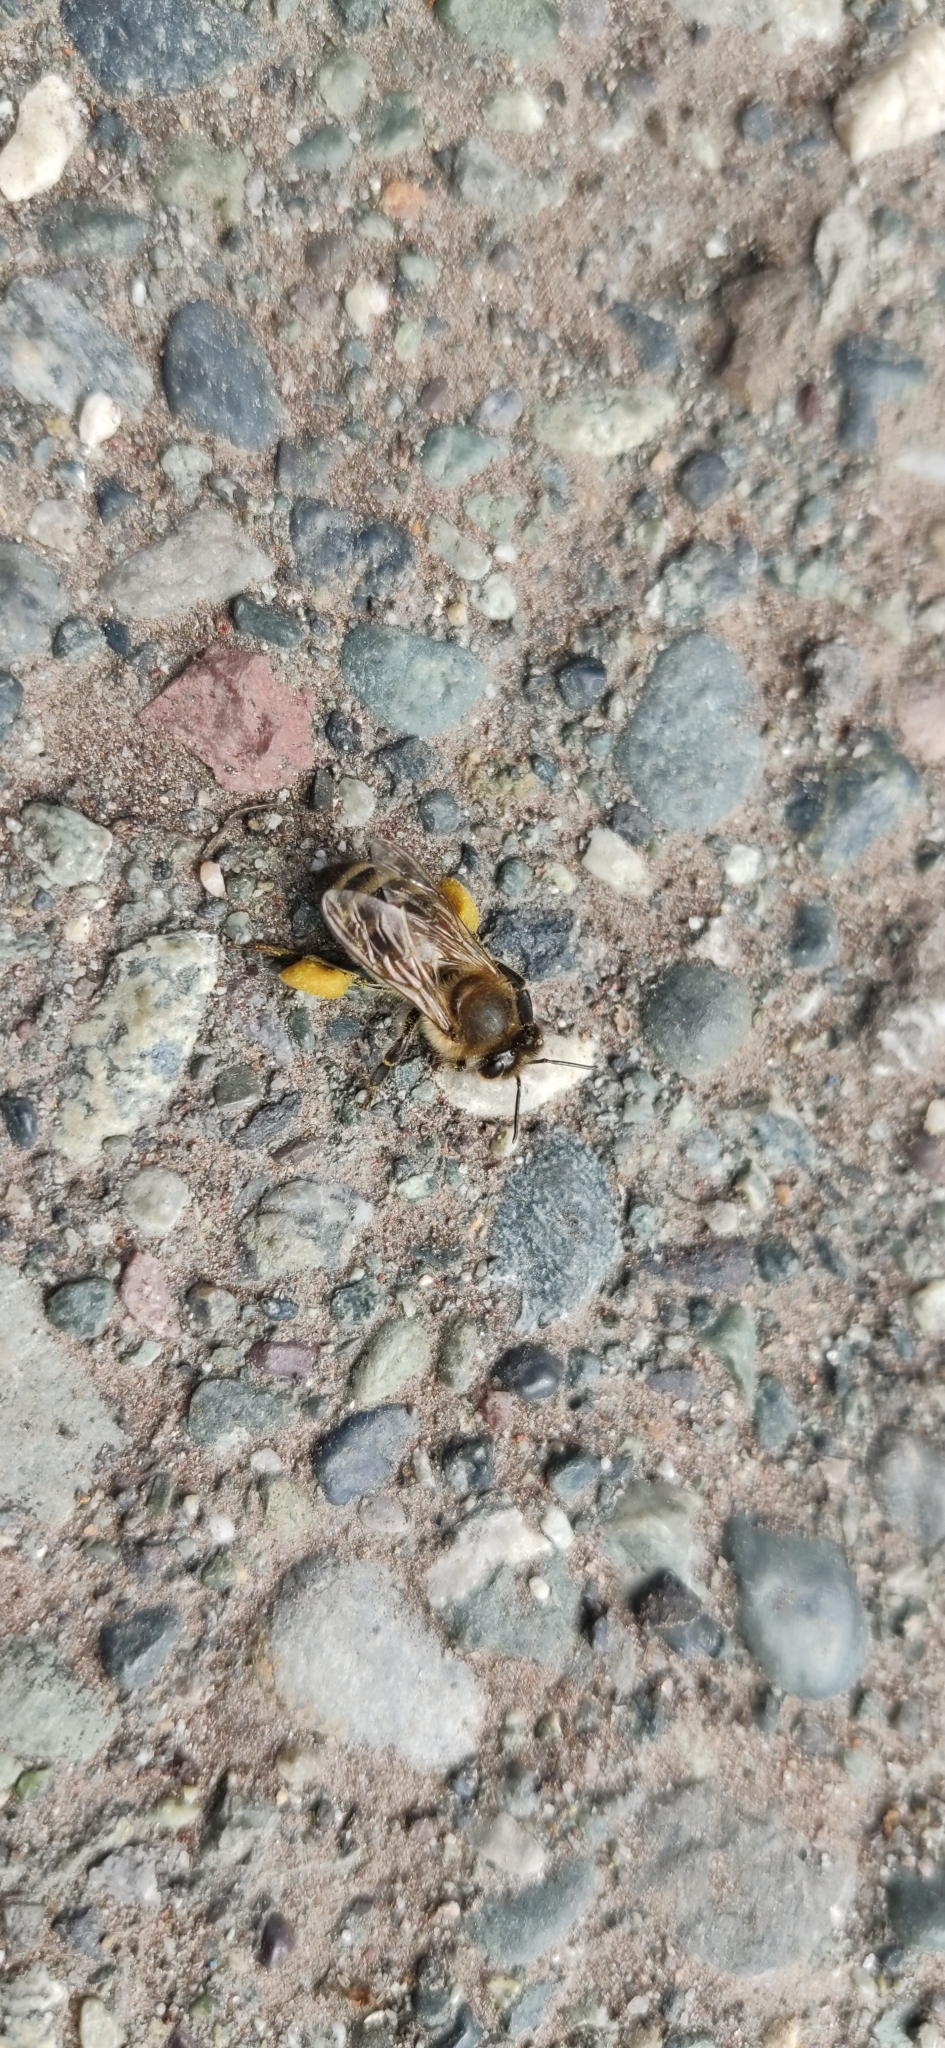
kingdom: Animalia
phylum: Arthropoda
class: Insecta
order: Hymenoptera
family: Apidae
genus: Apis
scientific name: Apis mellifera
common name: Honey bee
